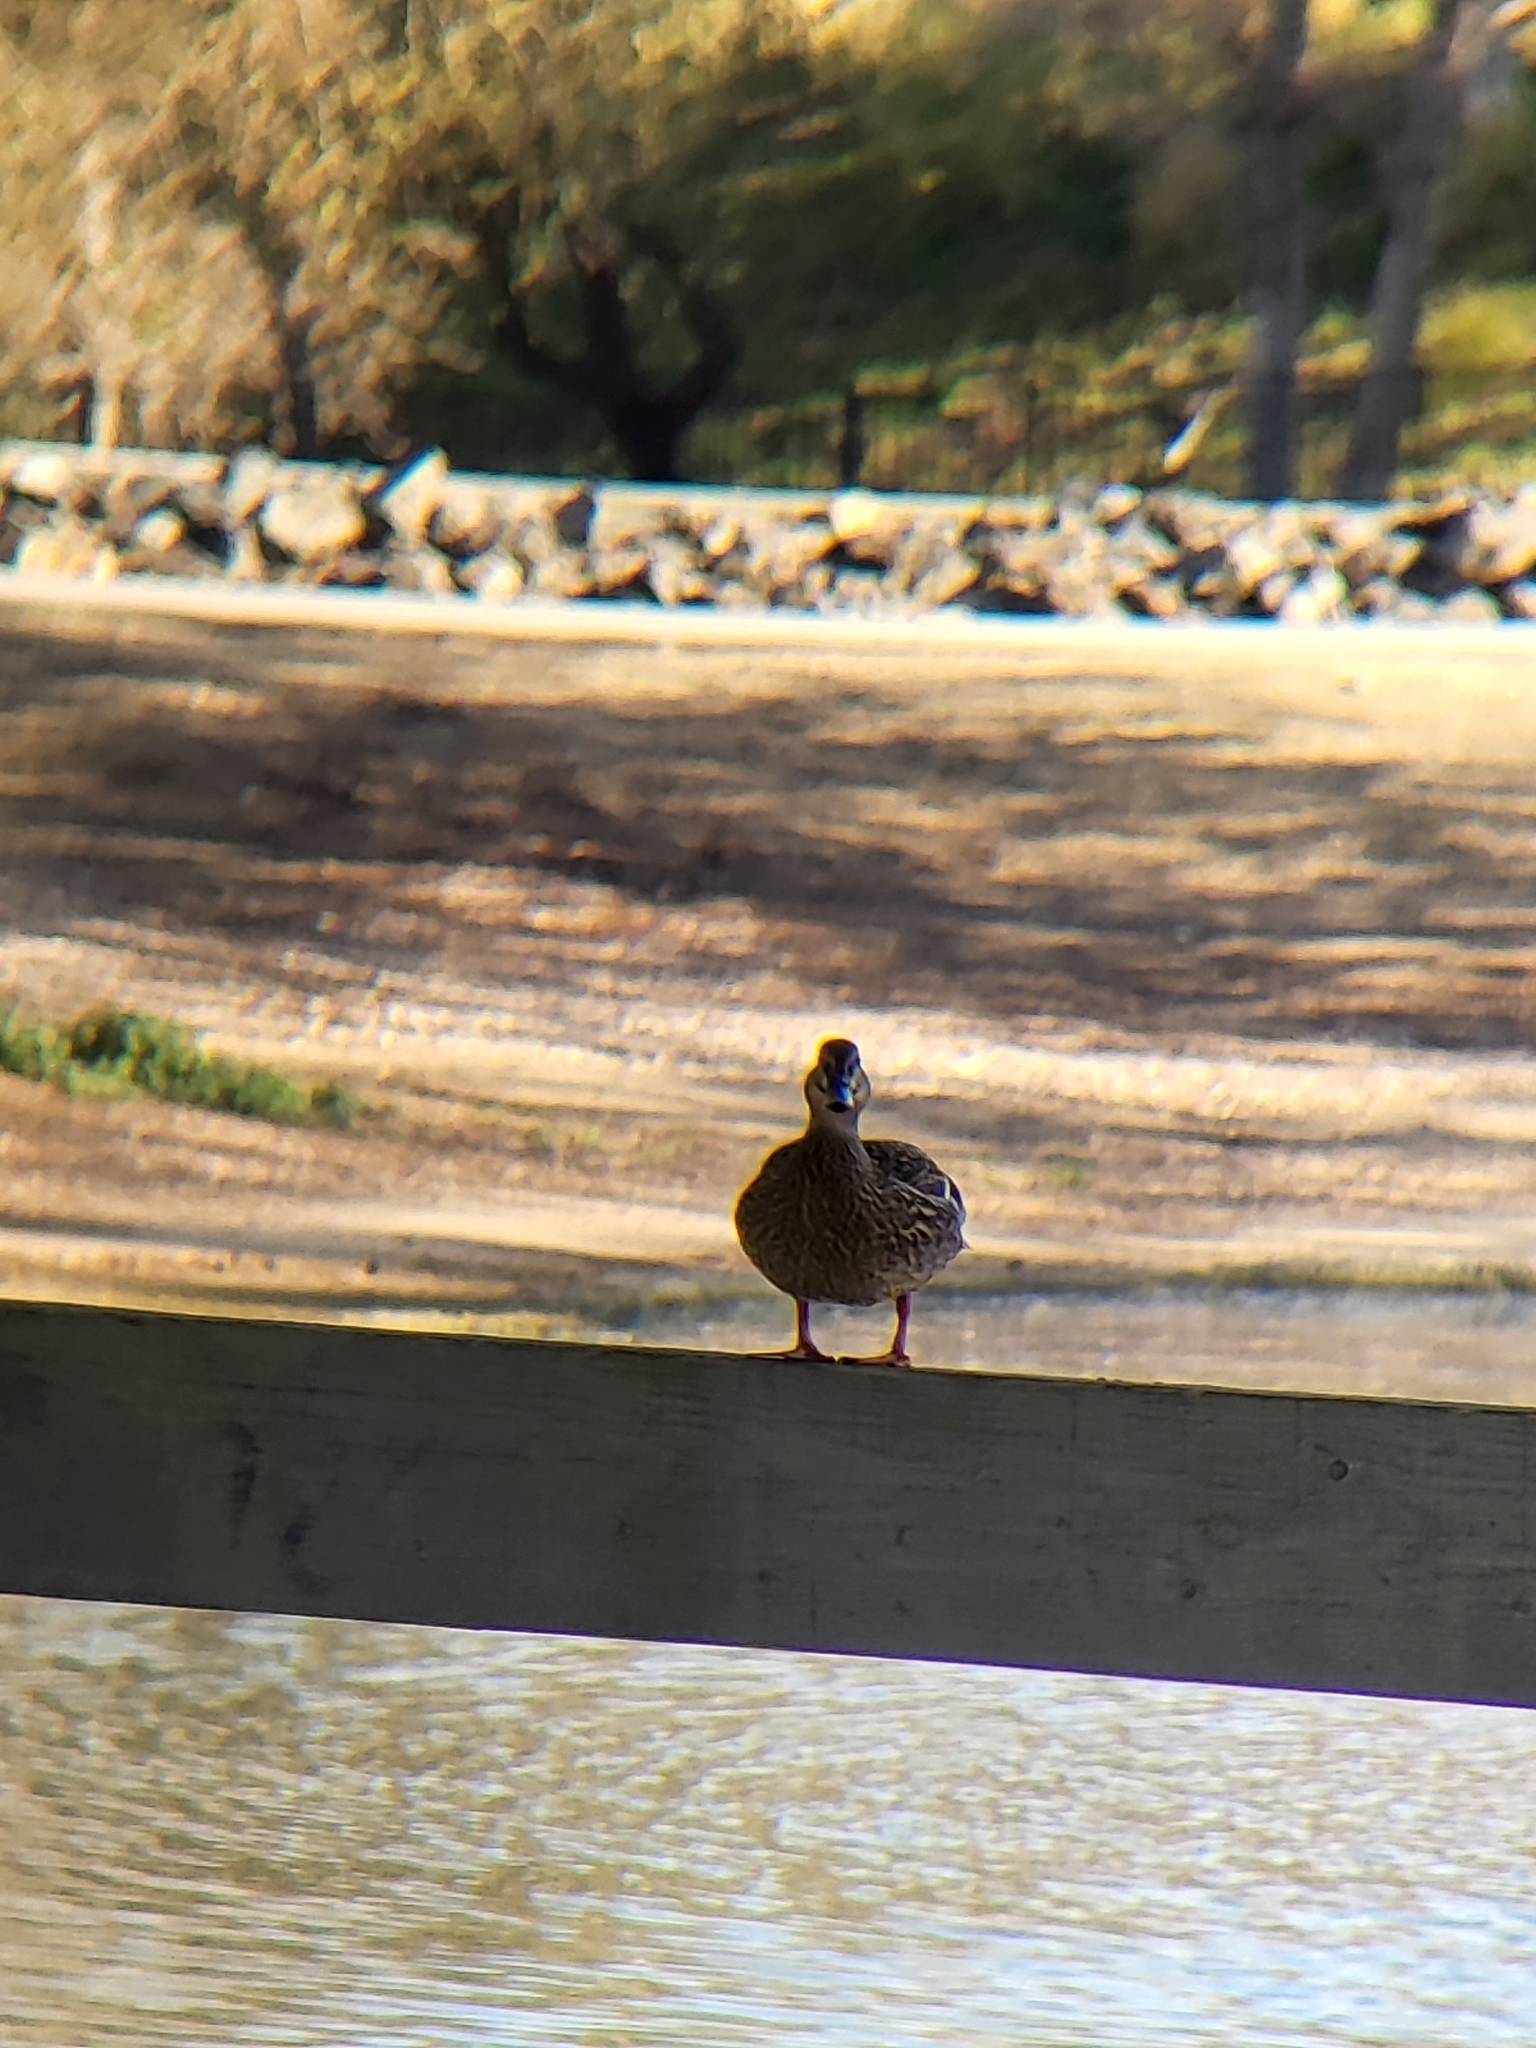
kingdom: Animalia
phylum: Chordata
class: Aves
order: Anseriformes
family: Anatidae
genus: Anas
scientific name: Anas platyrhynchos
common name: Mallard
